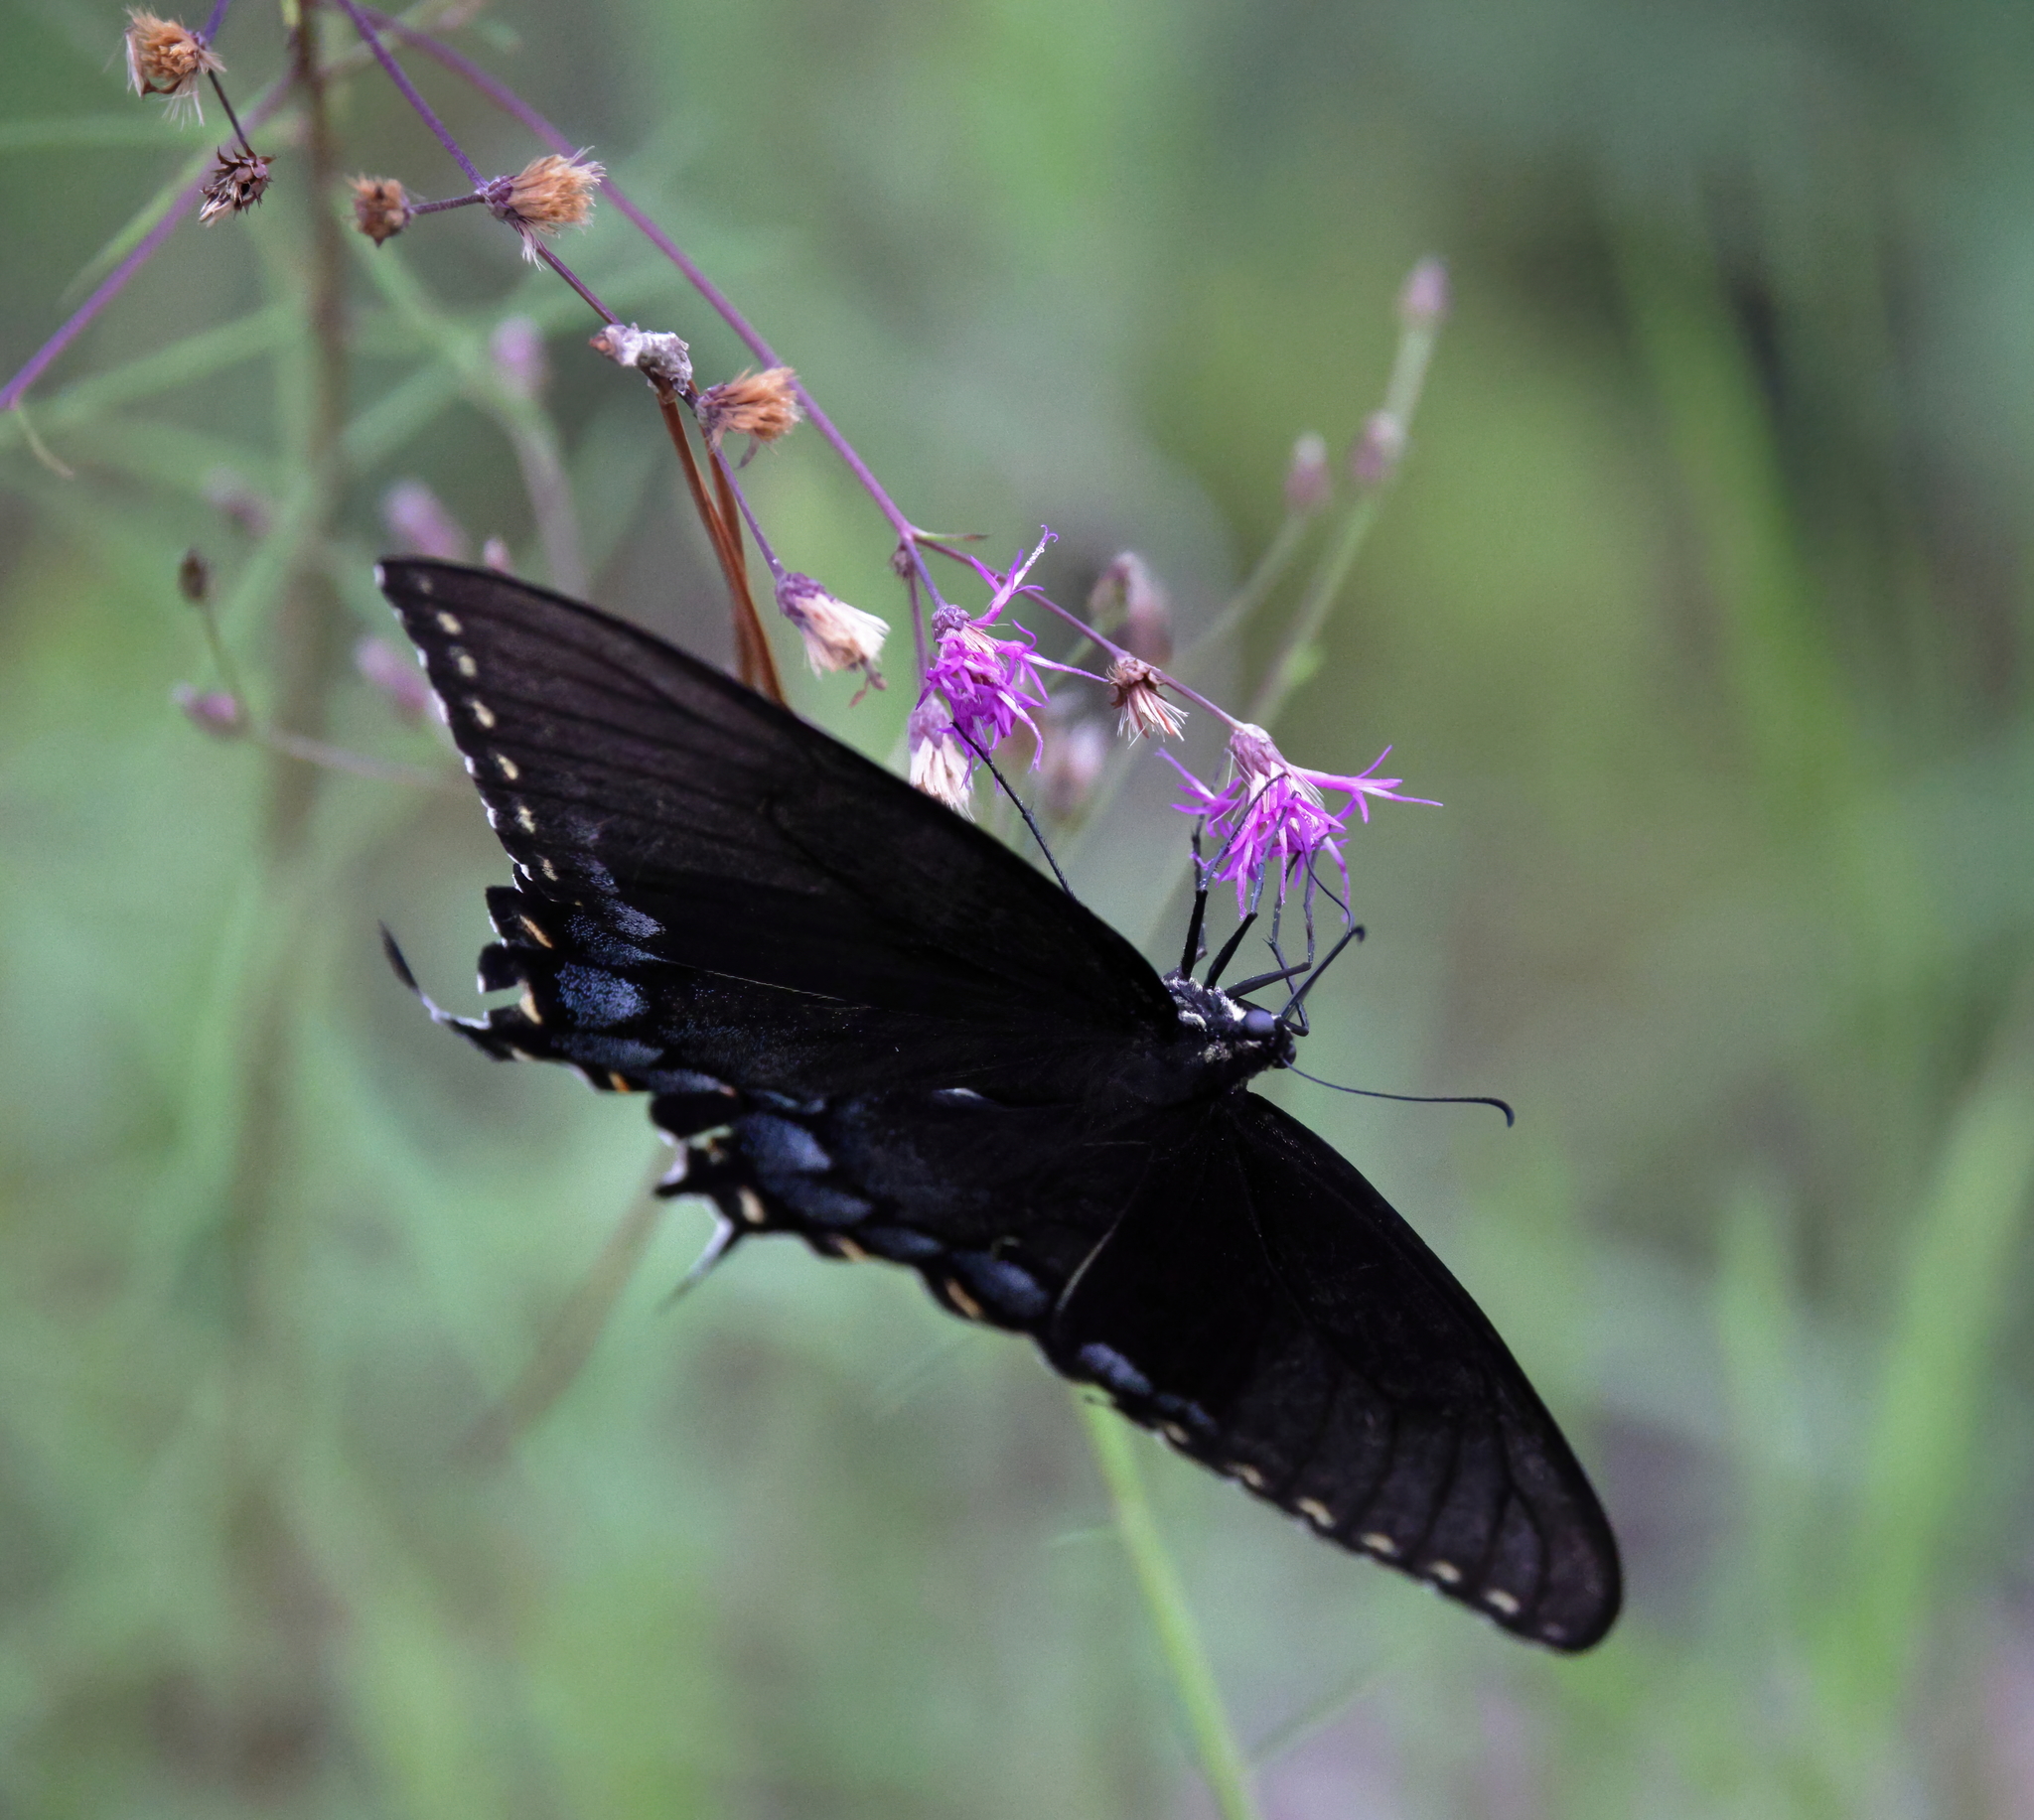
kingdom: Animalia
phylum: Arthropoda
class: Insecta
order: Lepidoptera
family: Papilionidae
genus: Papilio
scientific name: Papilio glaucus
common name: Tiger swallowtail
